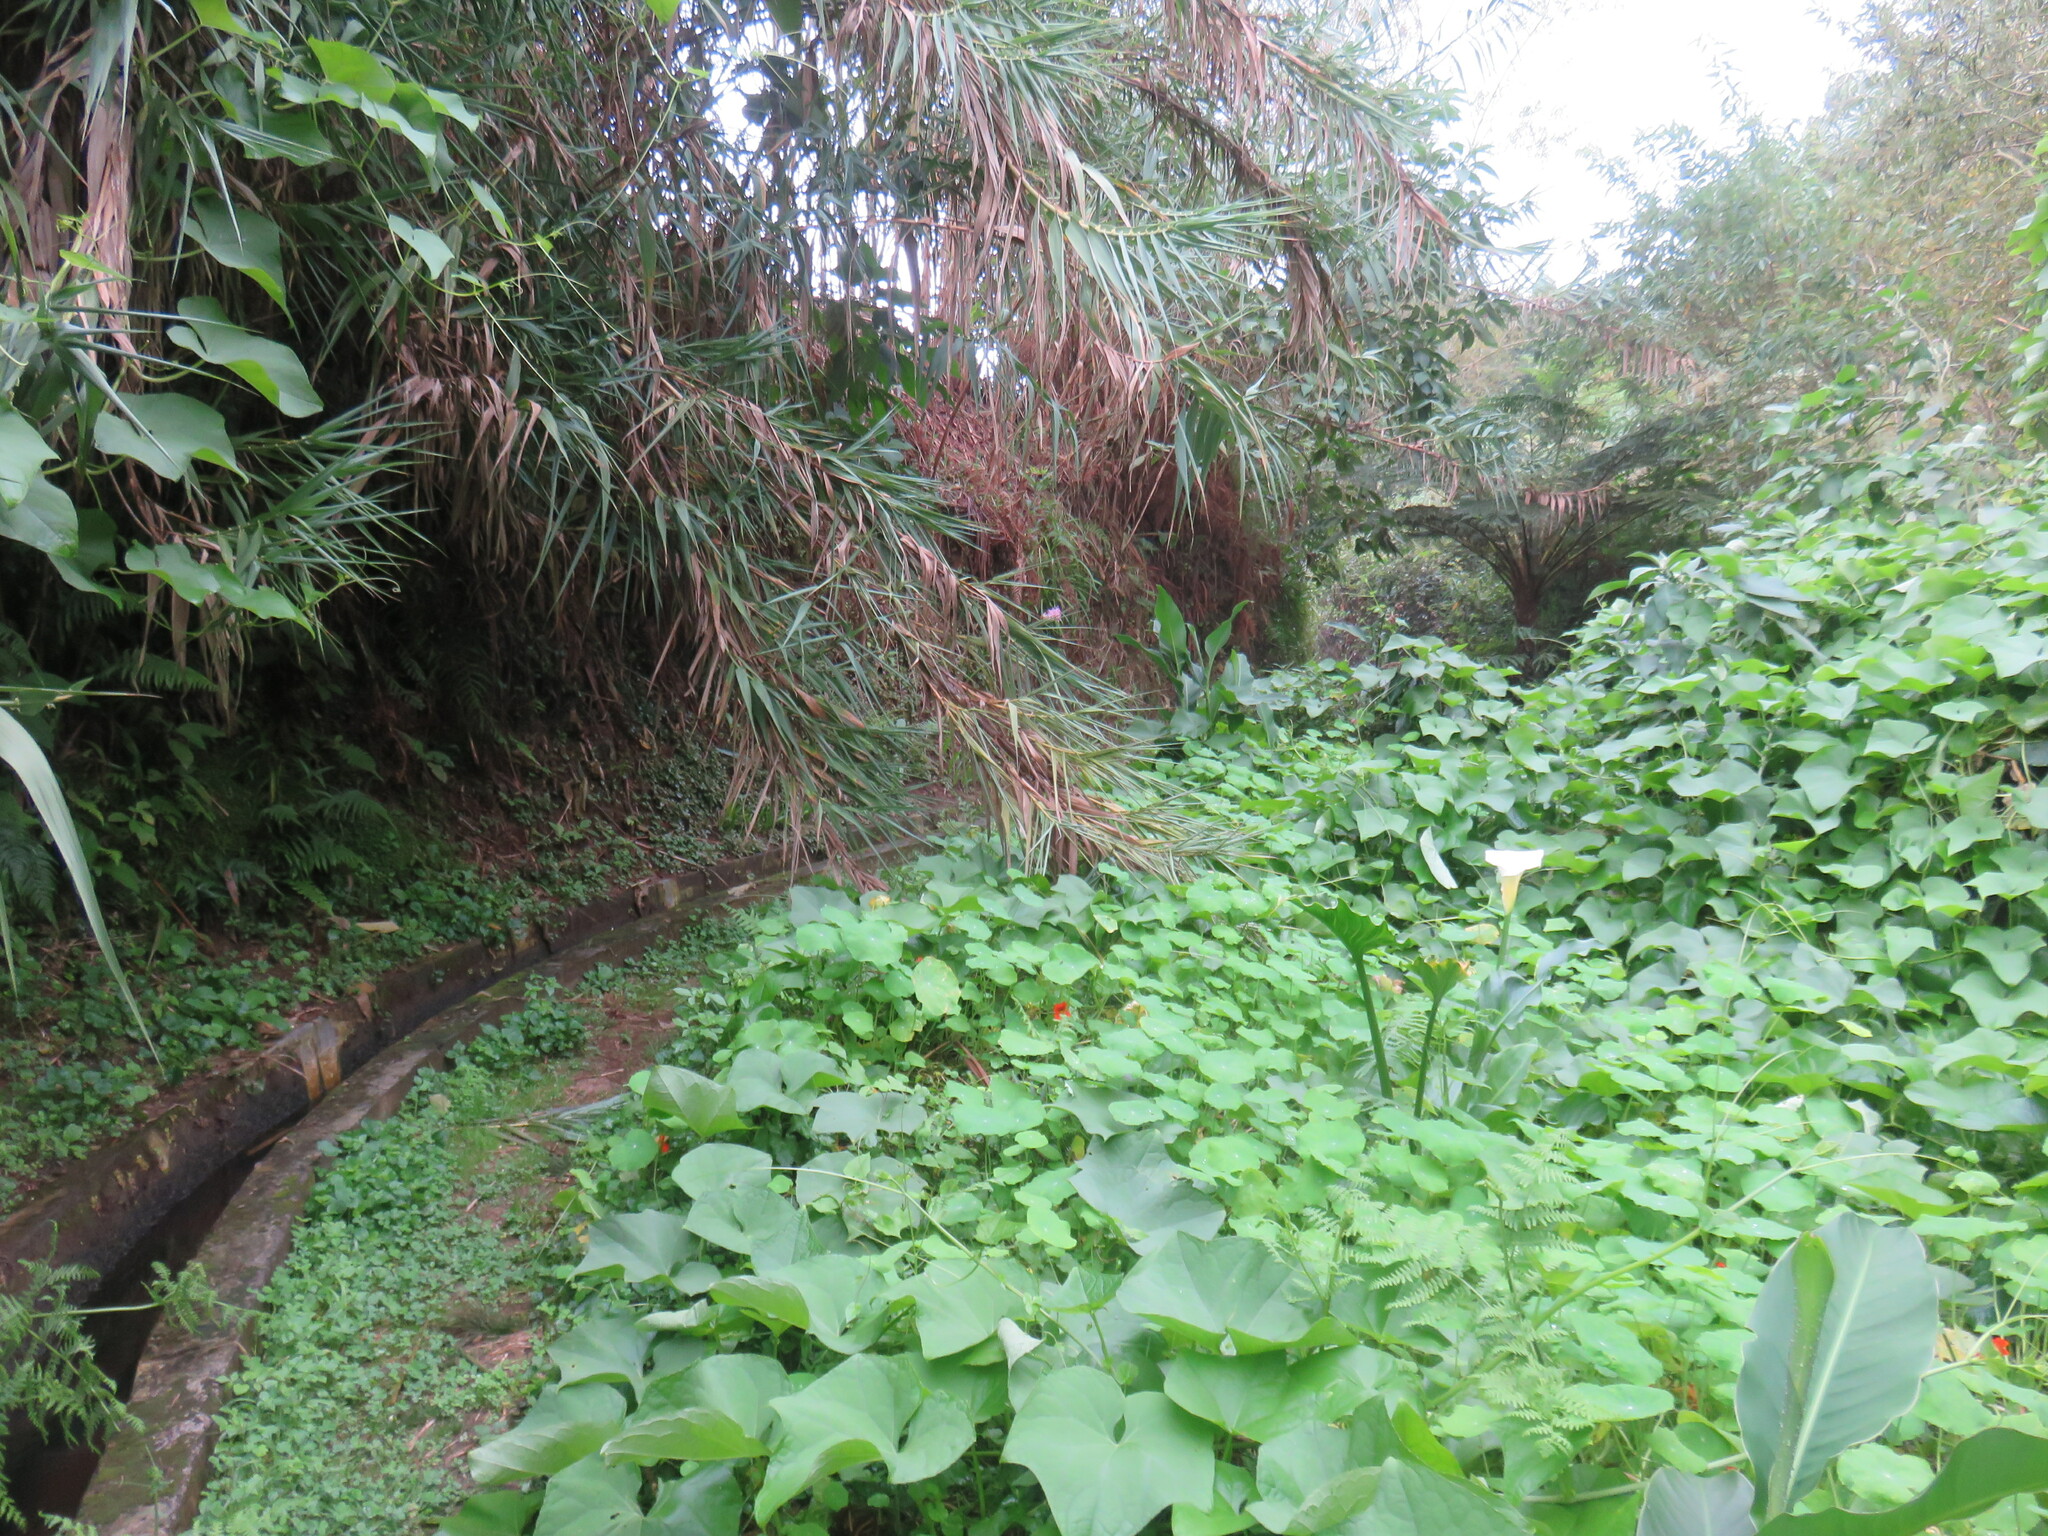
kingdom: Plantae
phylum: Tracheophyta
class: Magnoliopsida
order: Cucurbitales
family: Cucurbitaceae
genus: Sechium
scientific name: Sechium edule
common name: Chayote
